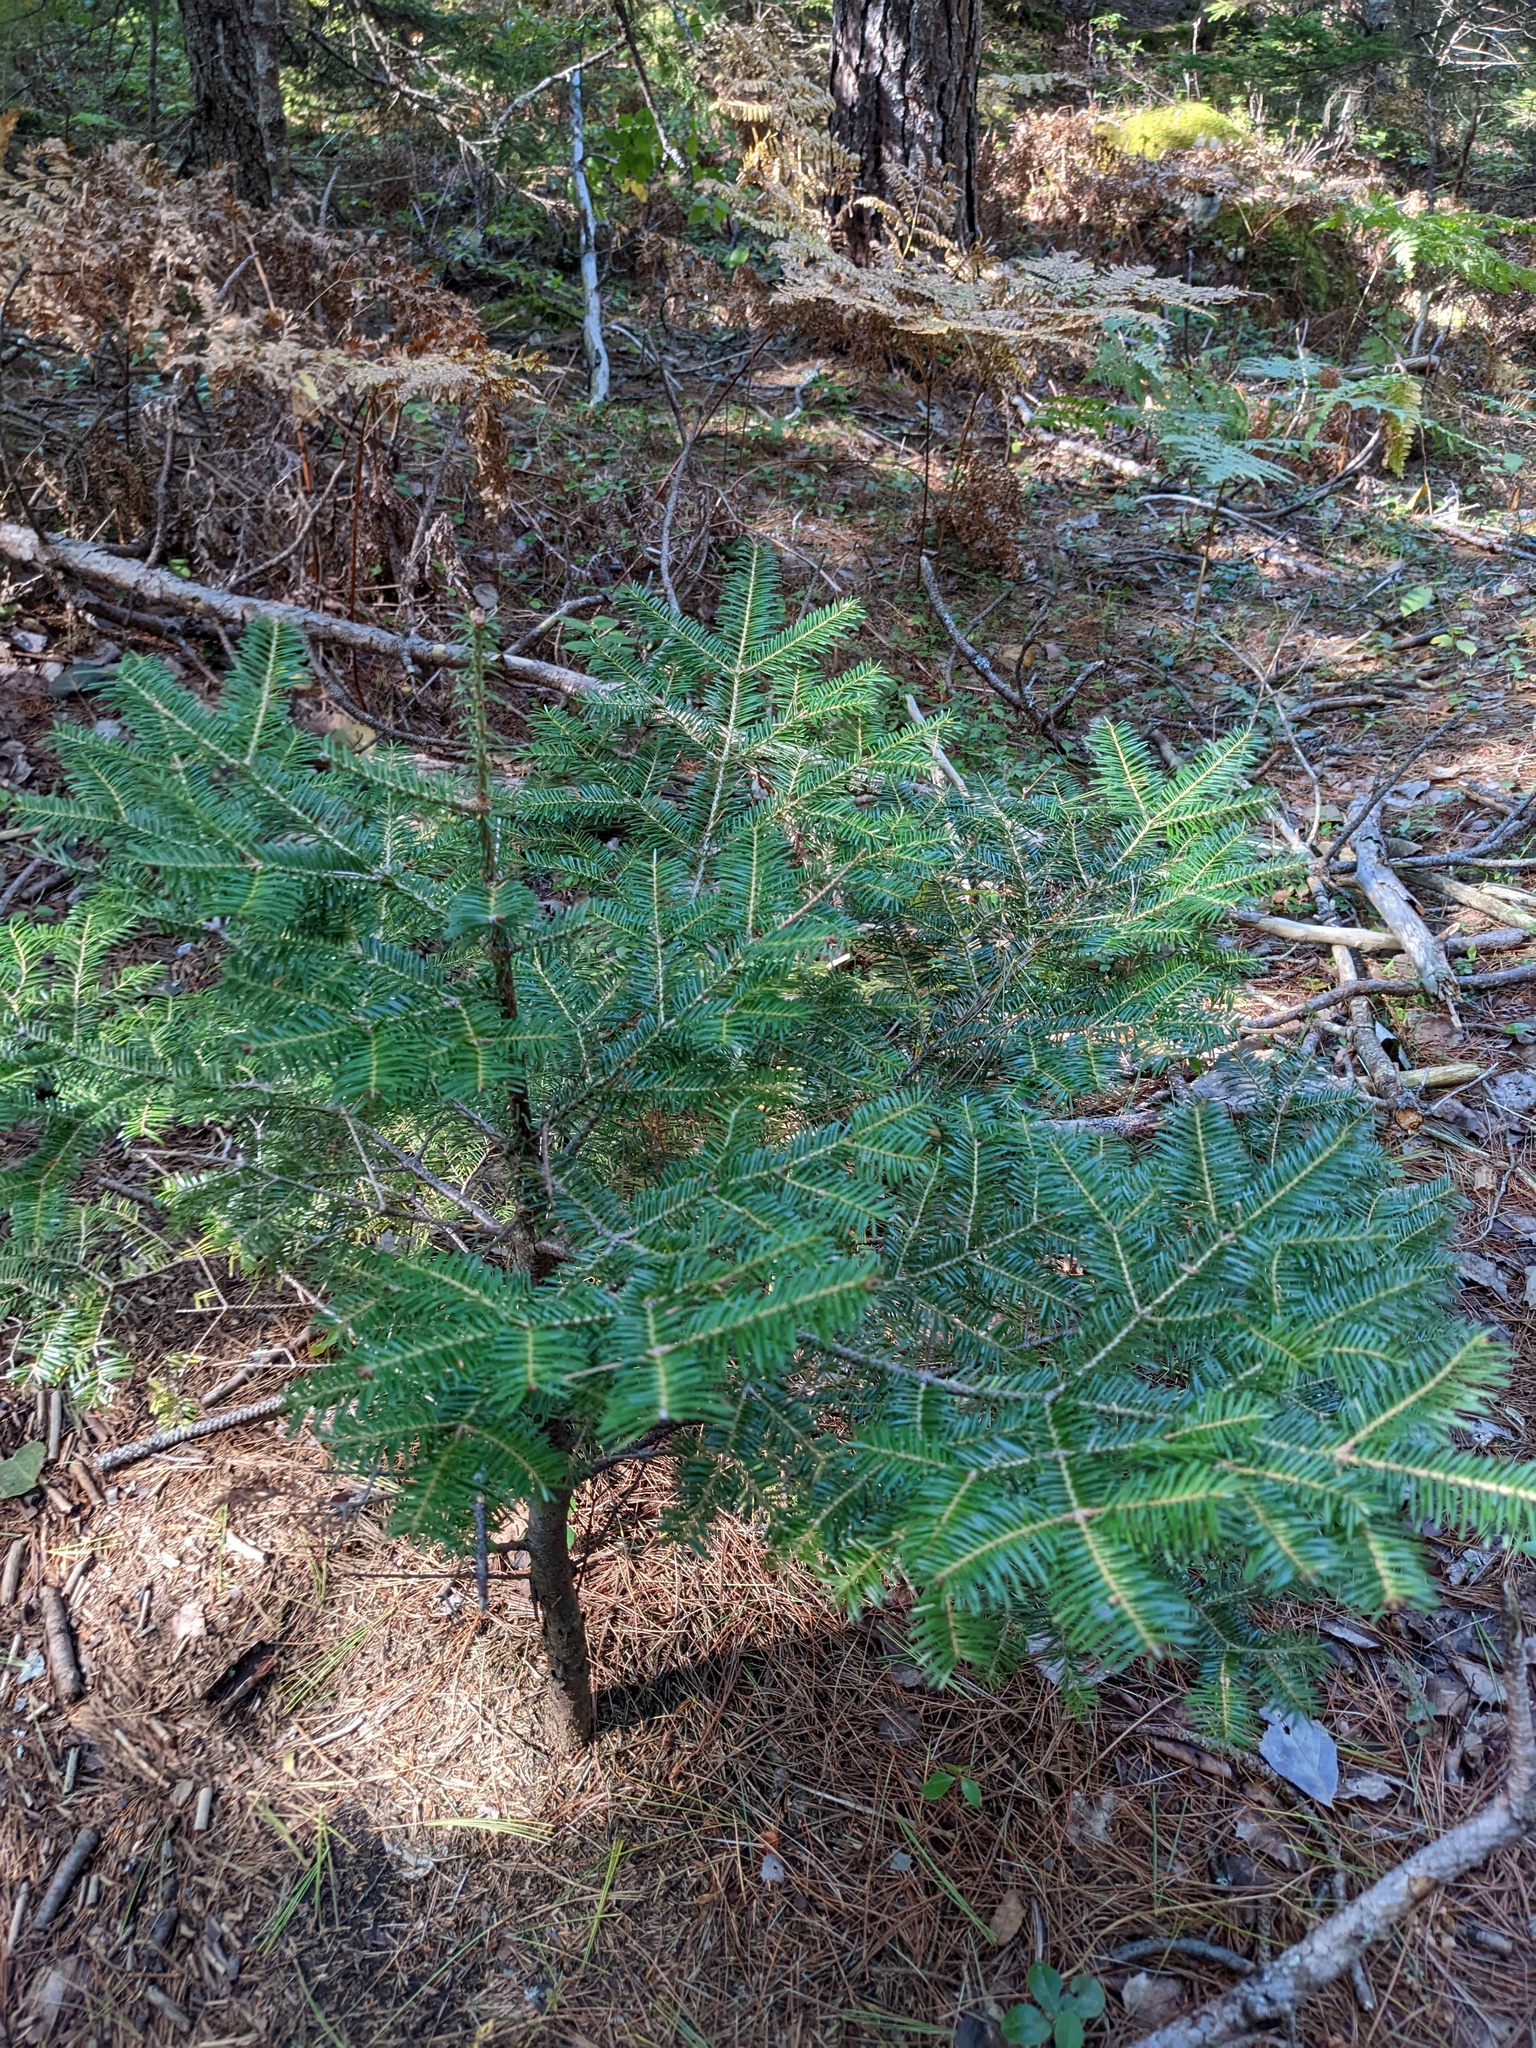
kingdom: Plantae
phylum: Tracheophyta
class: Pinopsida
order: Pinales
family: Pinaceae
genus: Abies
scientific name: Abies balsamea
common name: Balsam fir
